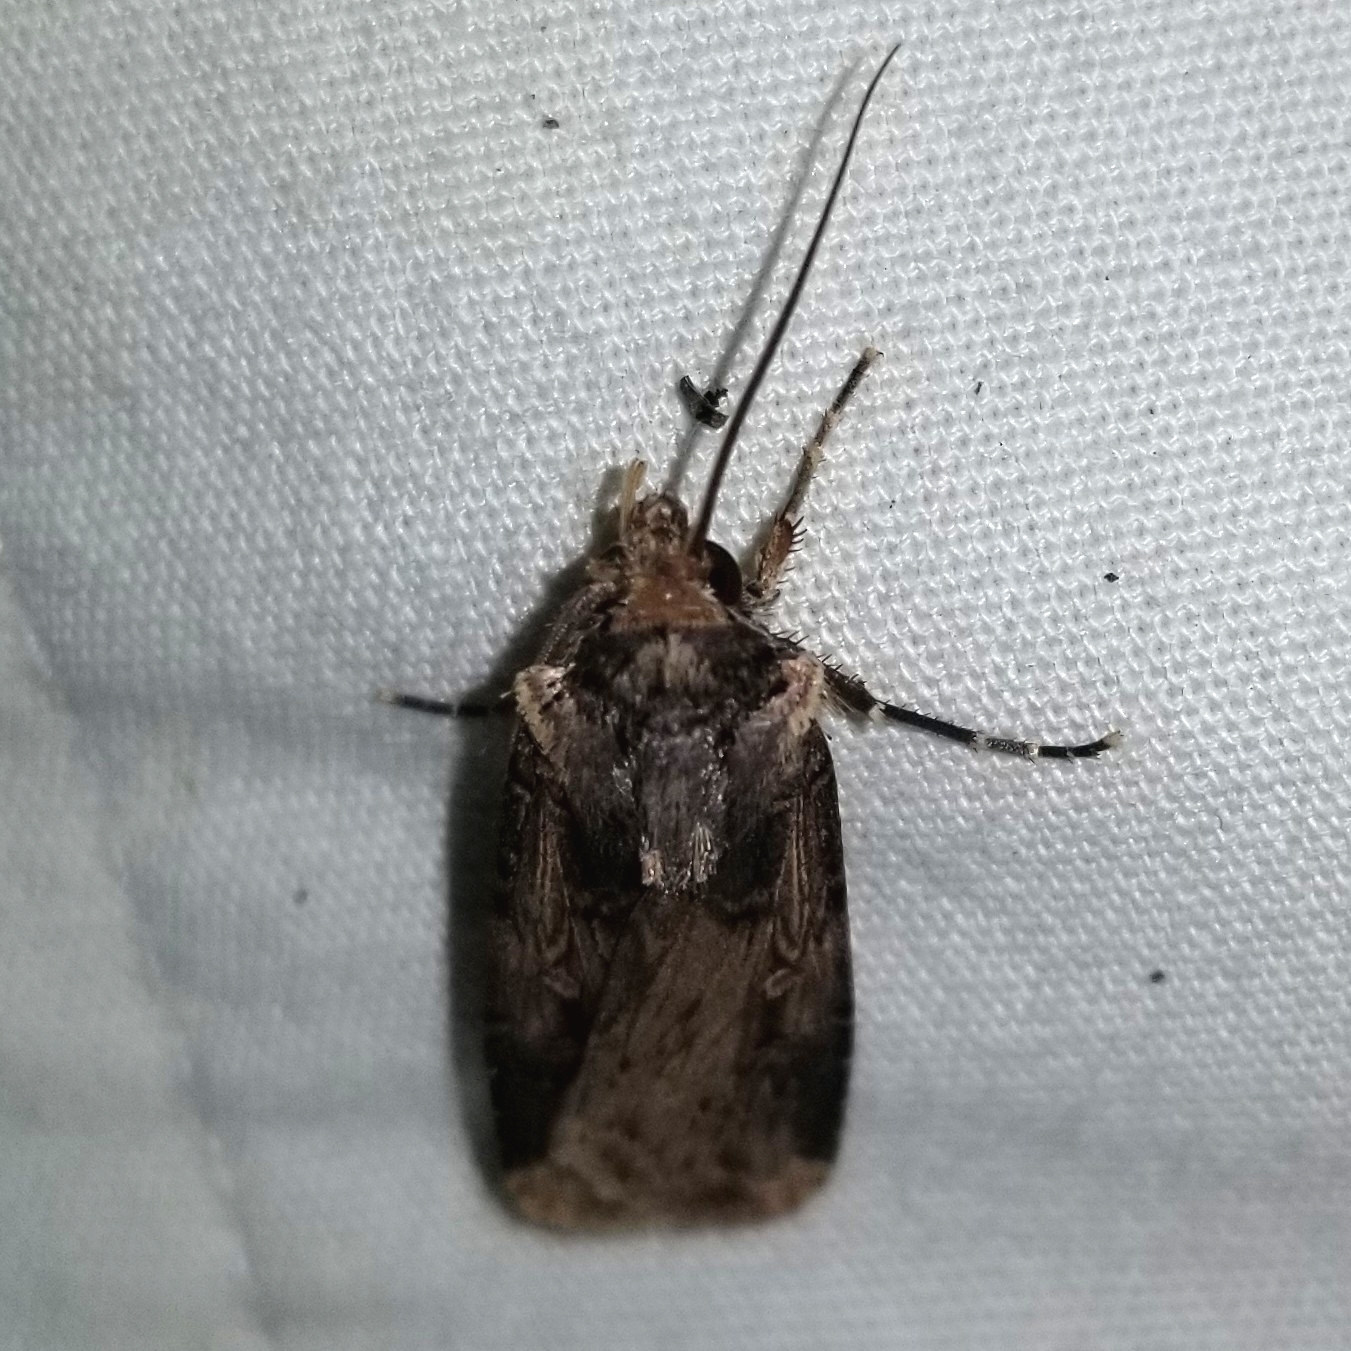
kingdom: Animalia
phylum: Arthropoda
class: Insecta
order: Lepidoptera
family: Noctuidae
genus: Feltia
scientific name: Feltia subterranea
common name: Granulate cutworm
